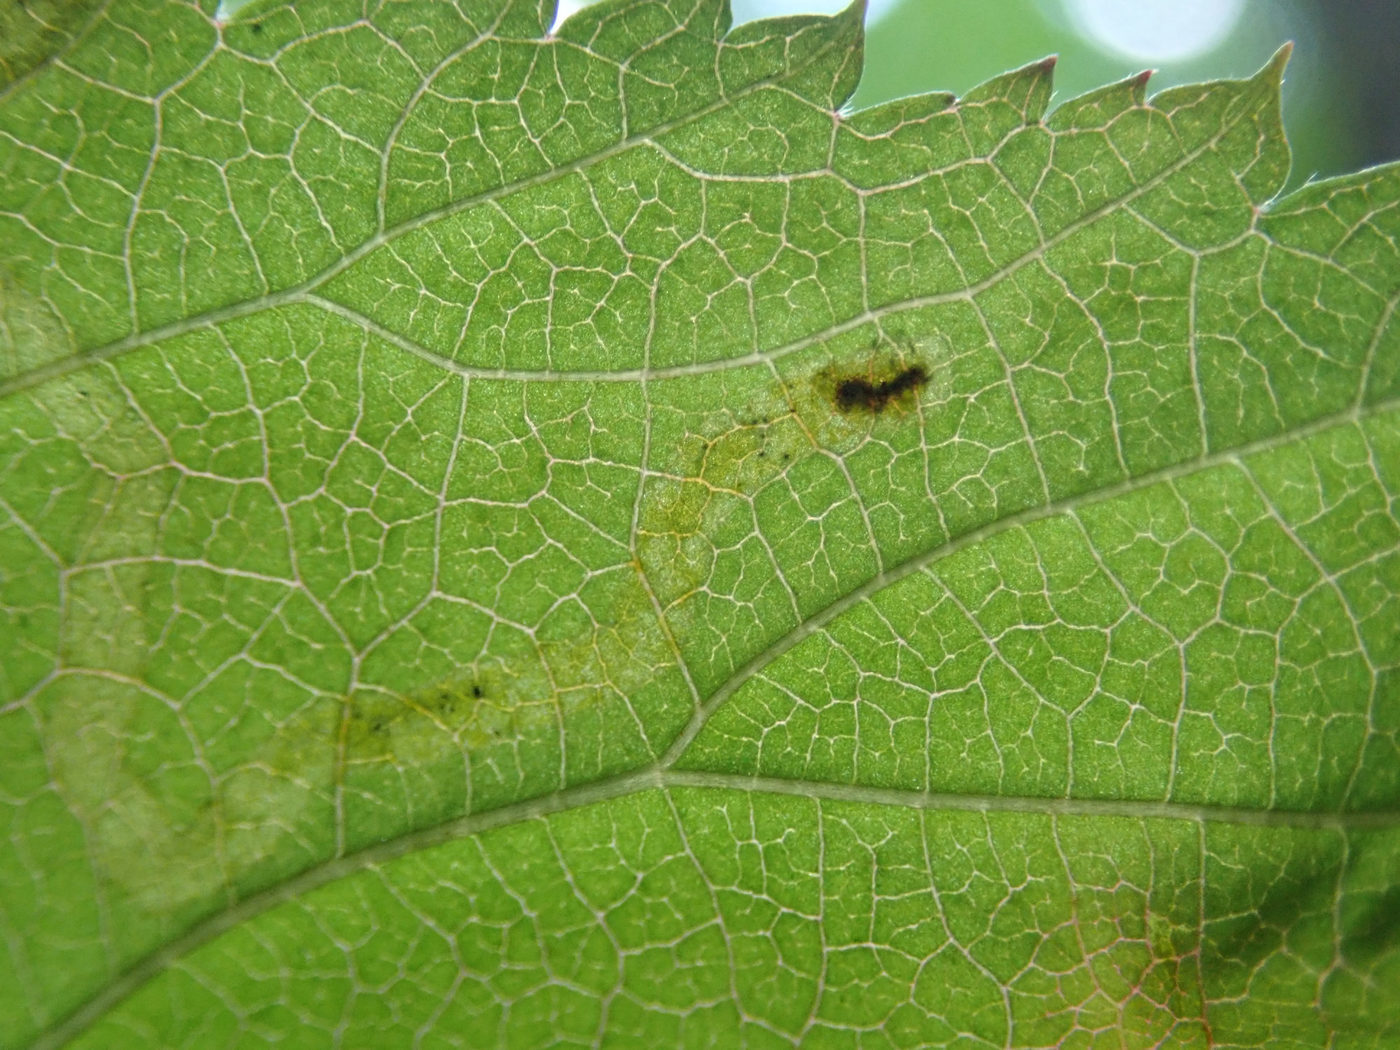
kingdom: Animalia
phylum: Arthropoda
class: Insecta
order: Diptera
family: Agromyzidae
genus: Agromyza
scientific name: Agromyza vockerothi
